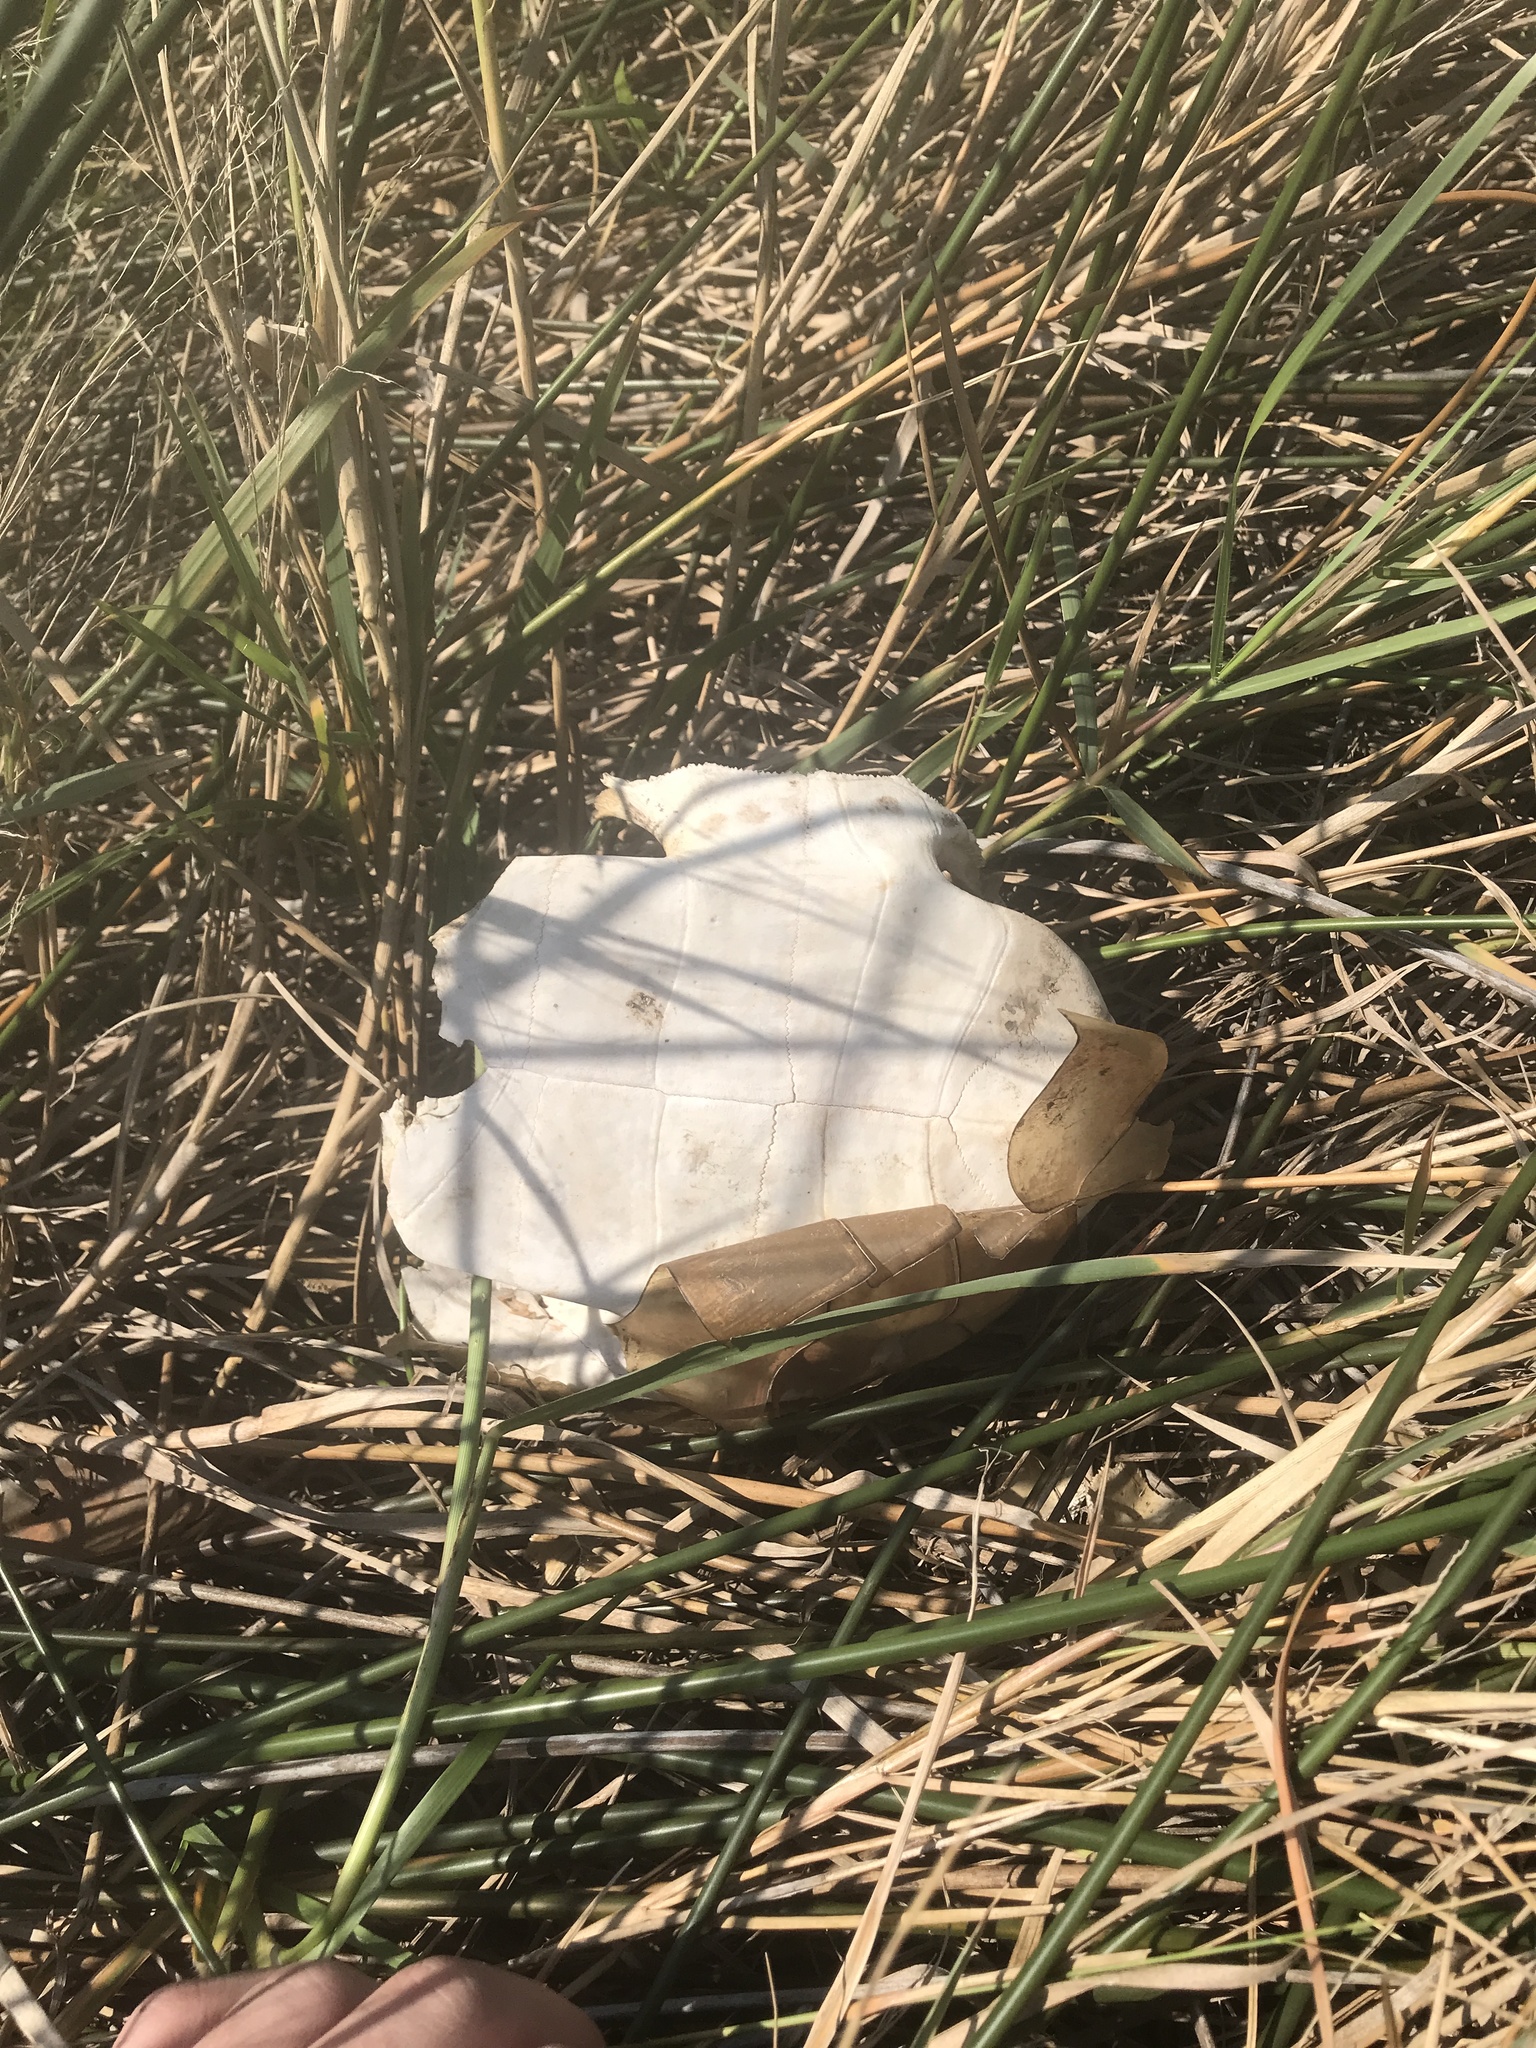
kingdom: Animalia
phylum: Chordata
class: Testudines
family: Emydidae
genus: Malaclemys
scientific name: Malaclemys terrapin
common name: Diamondback terrapin
